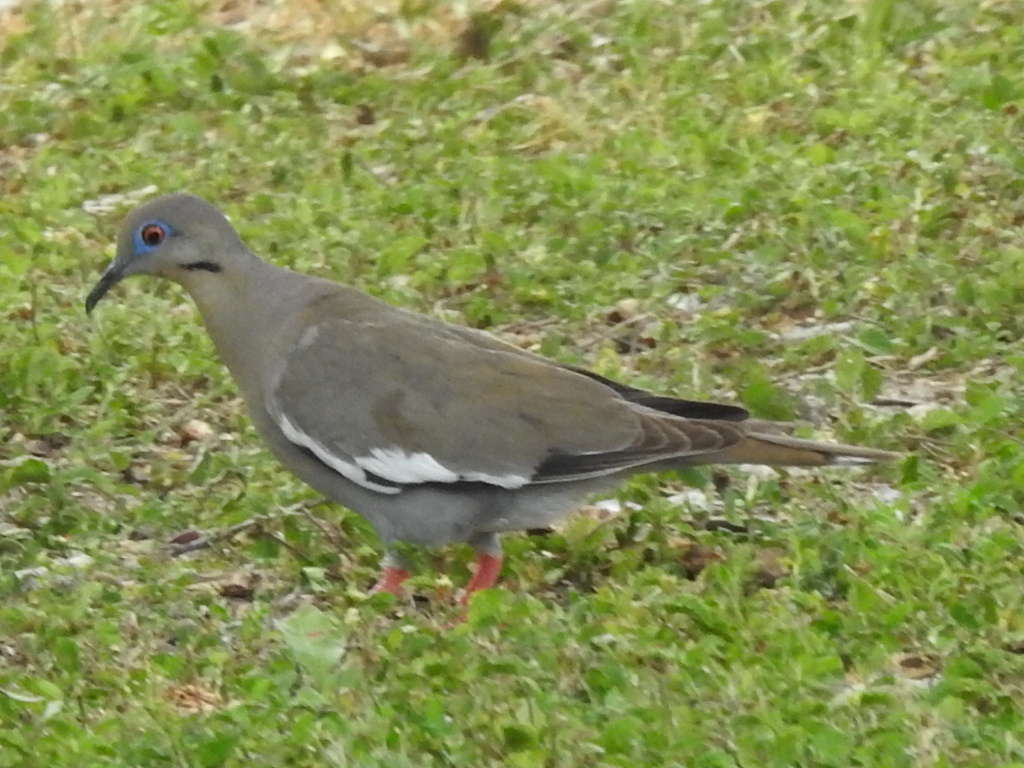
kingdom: Animalia
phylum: Chordata
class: Aves
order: Columbiformes
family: Columbidae
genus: Zenaida
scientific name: Zenaida asiatica
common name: White-winged dove
